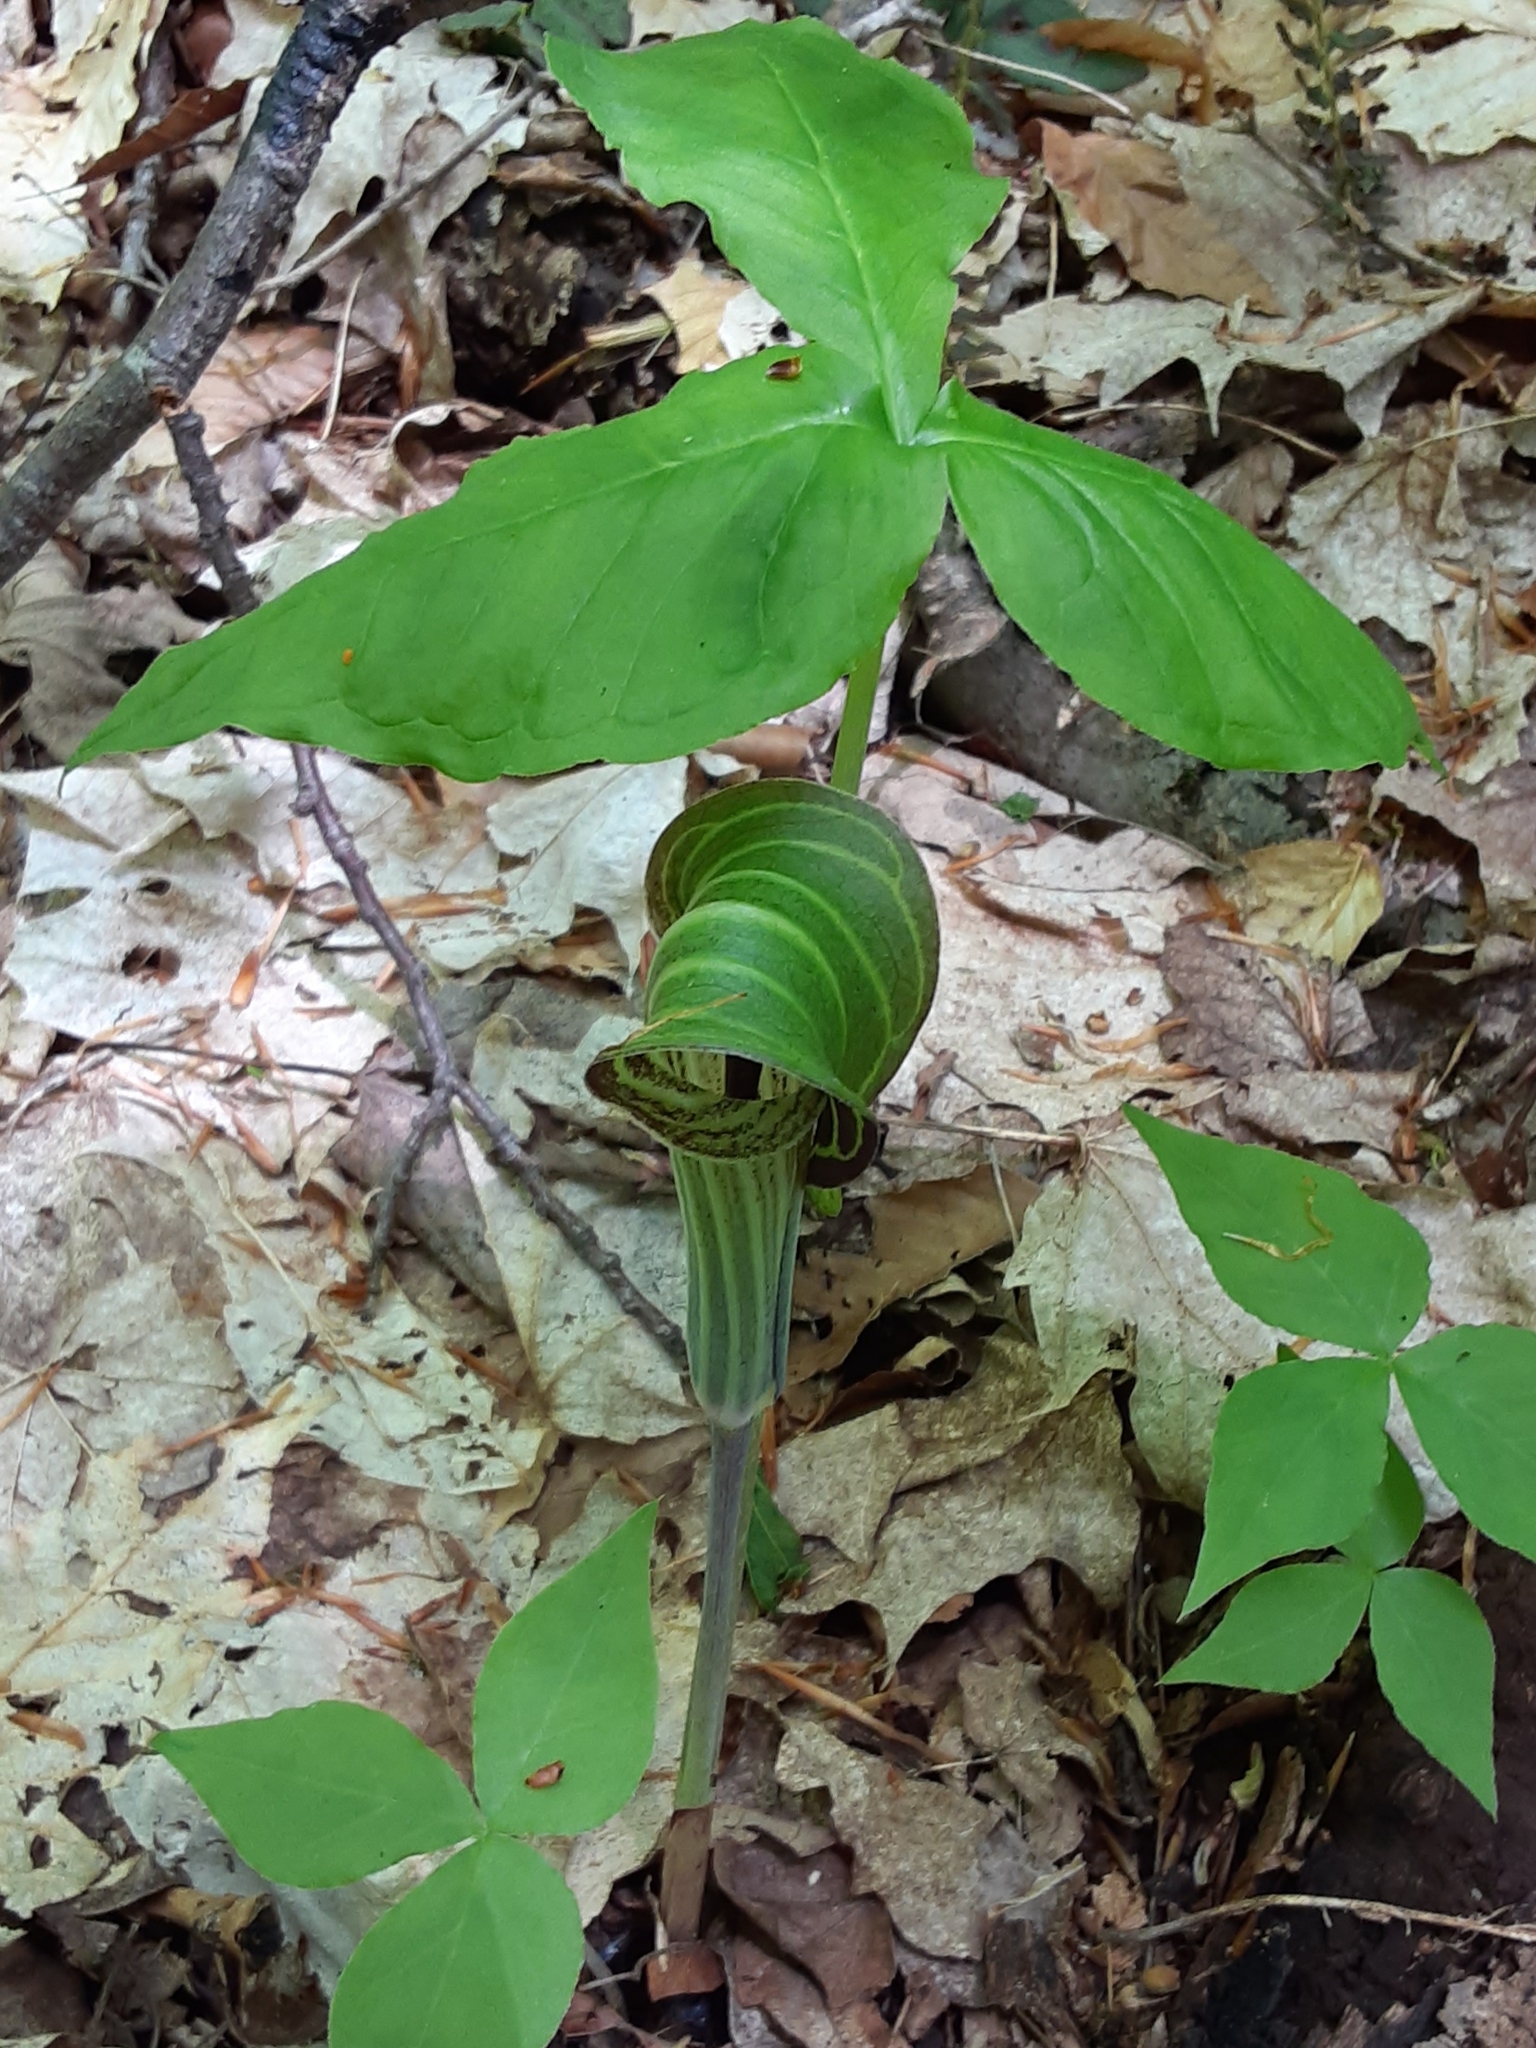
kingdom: Plantae
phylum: Tracheophyta
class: Liliopsida
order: Alismatales
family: Araceae
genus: Arisaema
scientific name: Arisaema triphyllum
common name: Jack-in-the-pulpit
